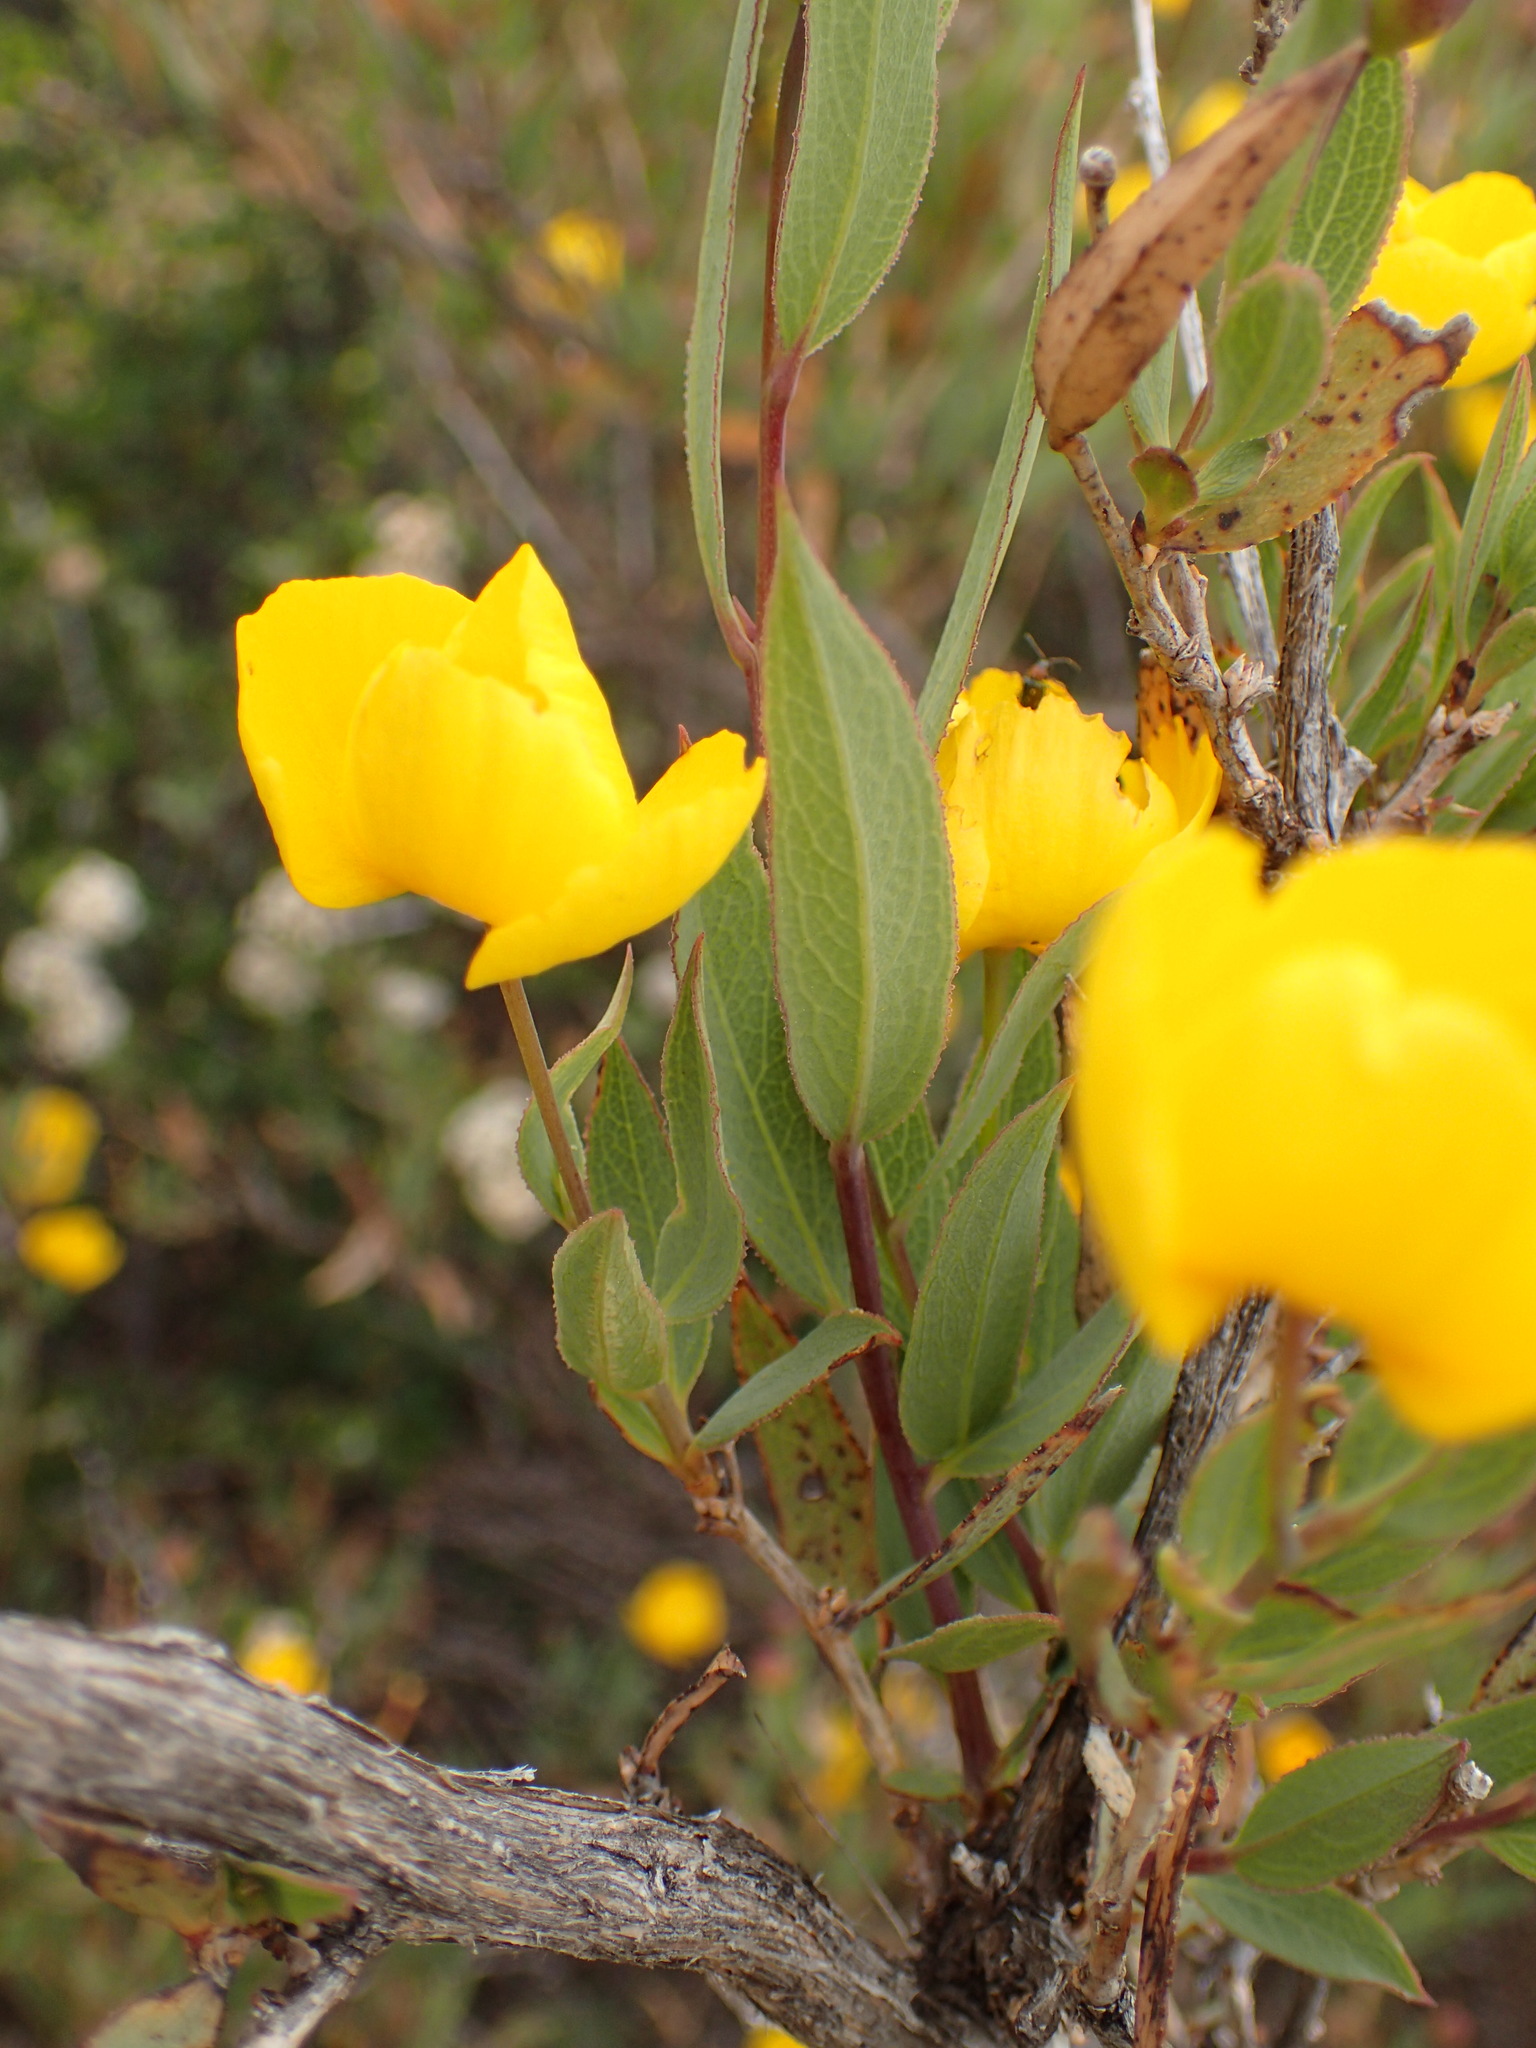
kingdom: Plantae
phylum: Tracheophyta
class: Magnoliopsida
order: Ranunculales
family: Papaveraceae
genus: Dendromecon
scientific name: Dendromecon rigida
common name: Tree poppy
